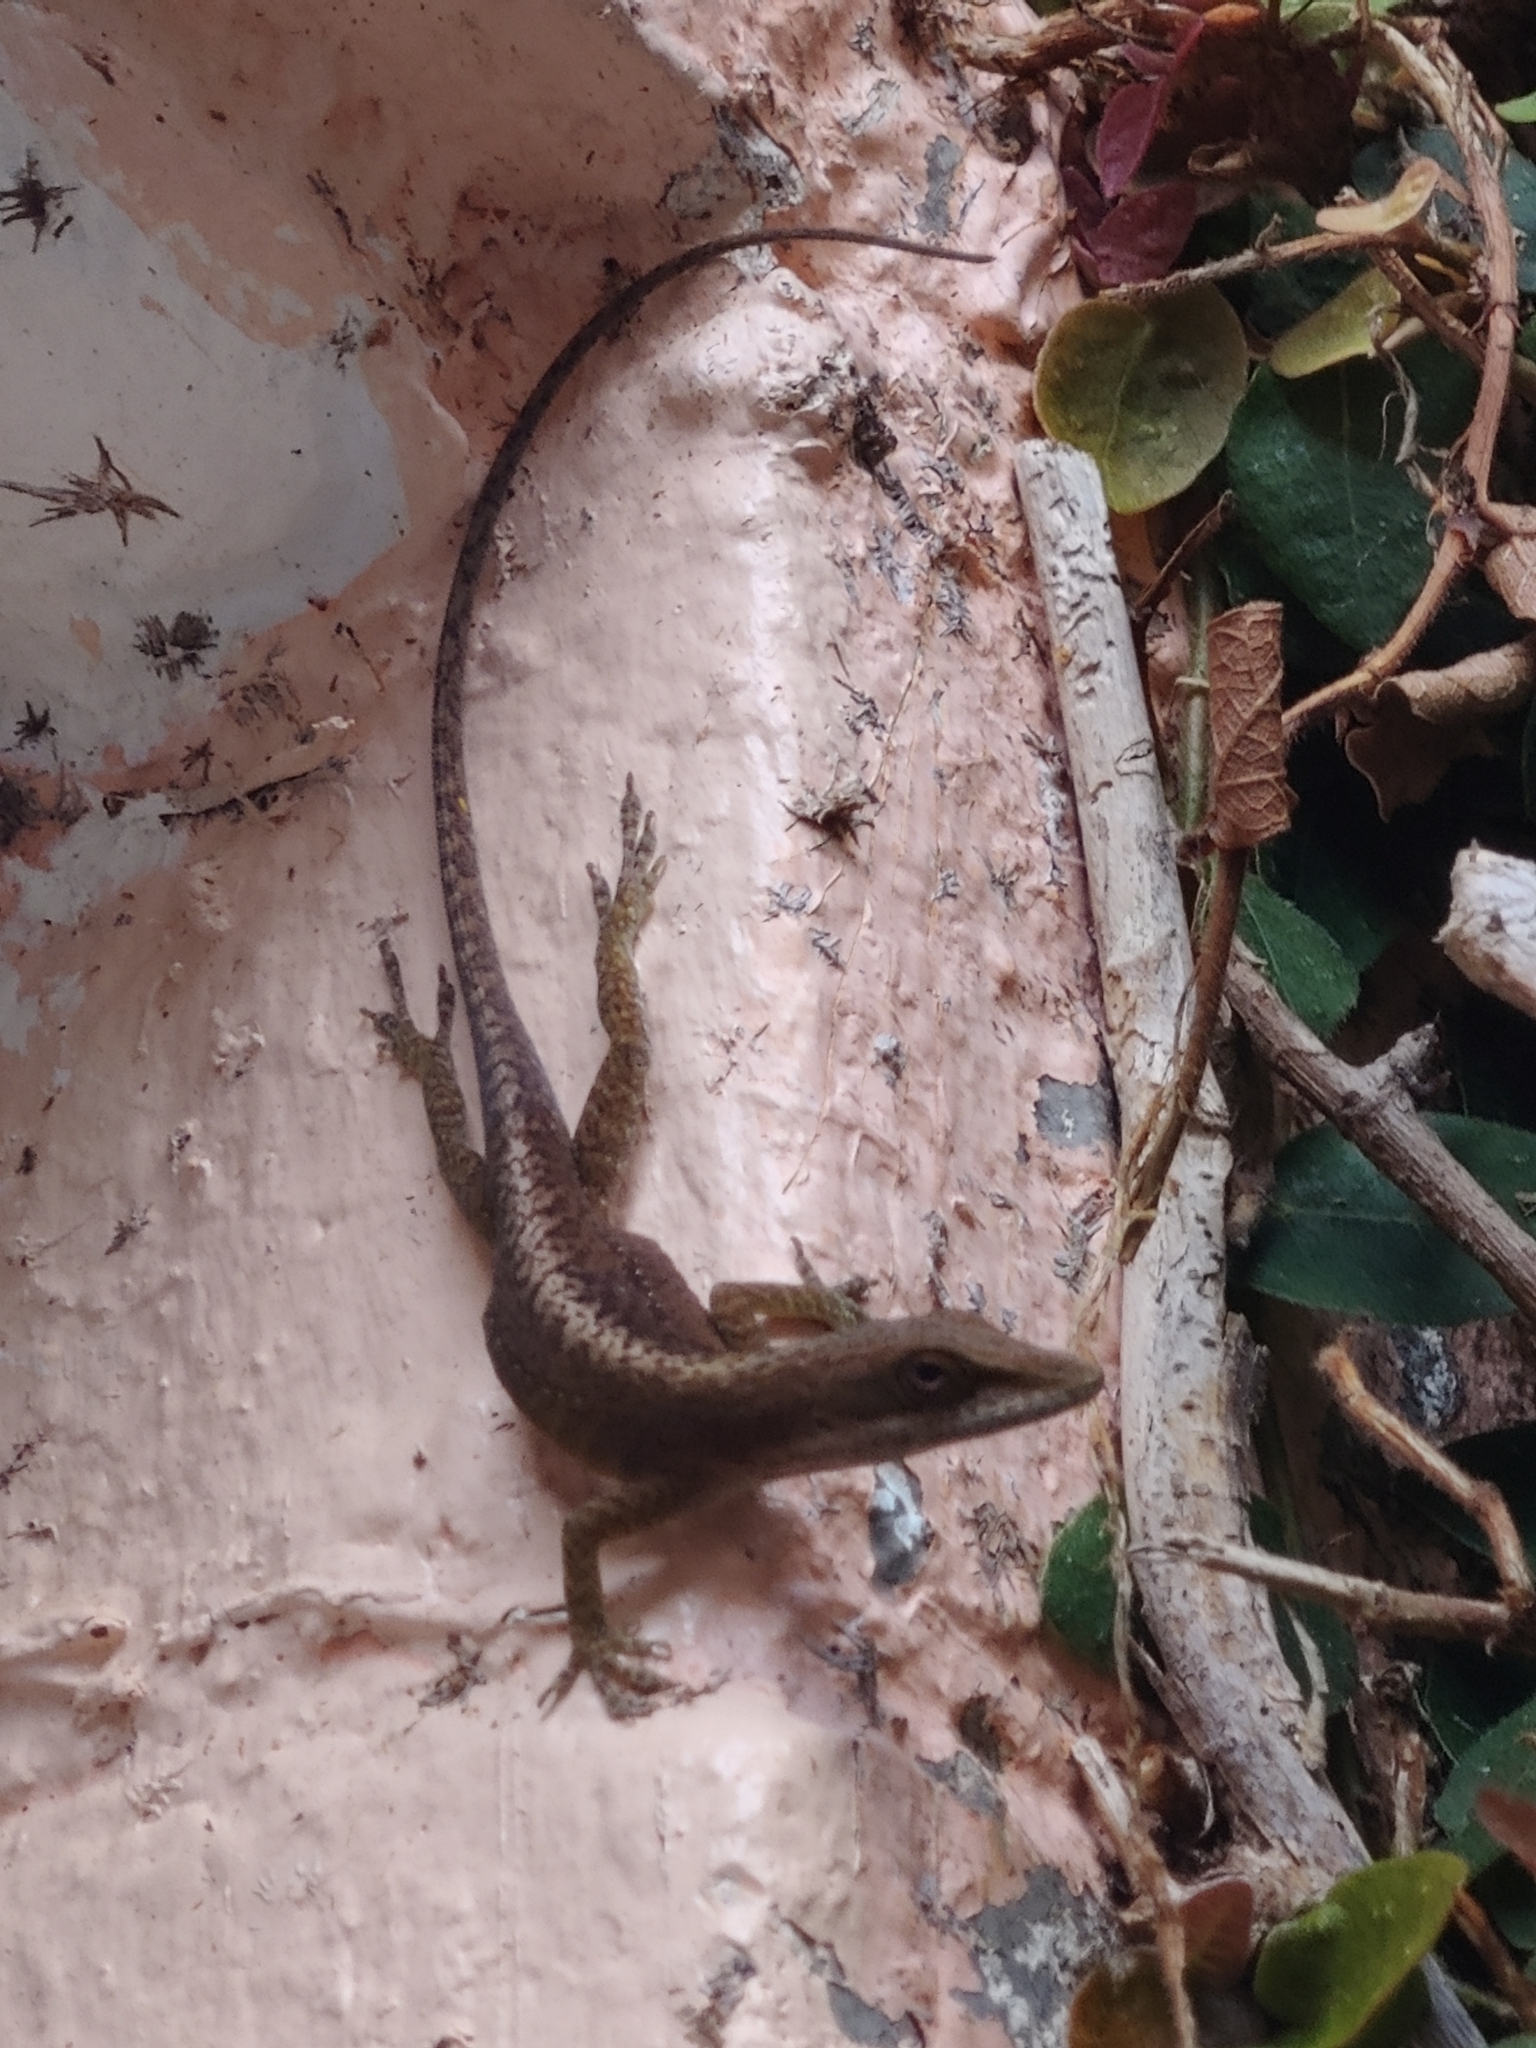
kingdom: Animalia
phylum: Chordata
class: Squamata
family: Dactyloidae
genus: Anolis
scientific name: Anolis carolinensis
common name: Green anole
